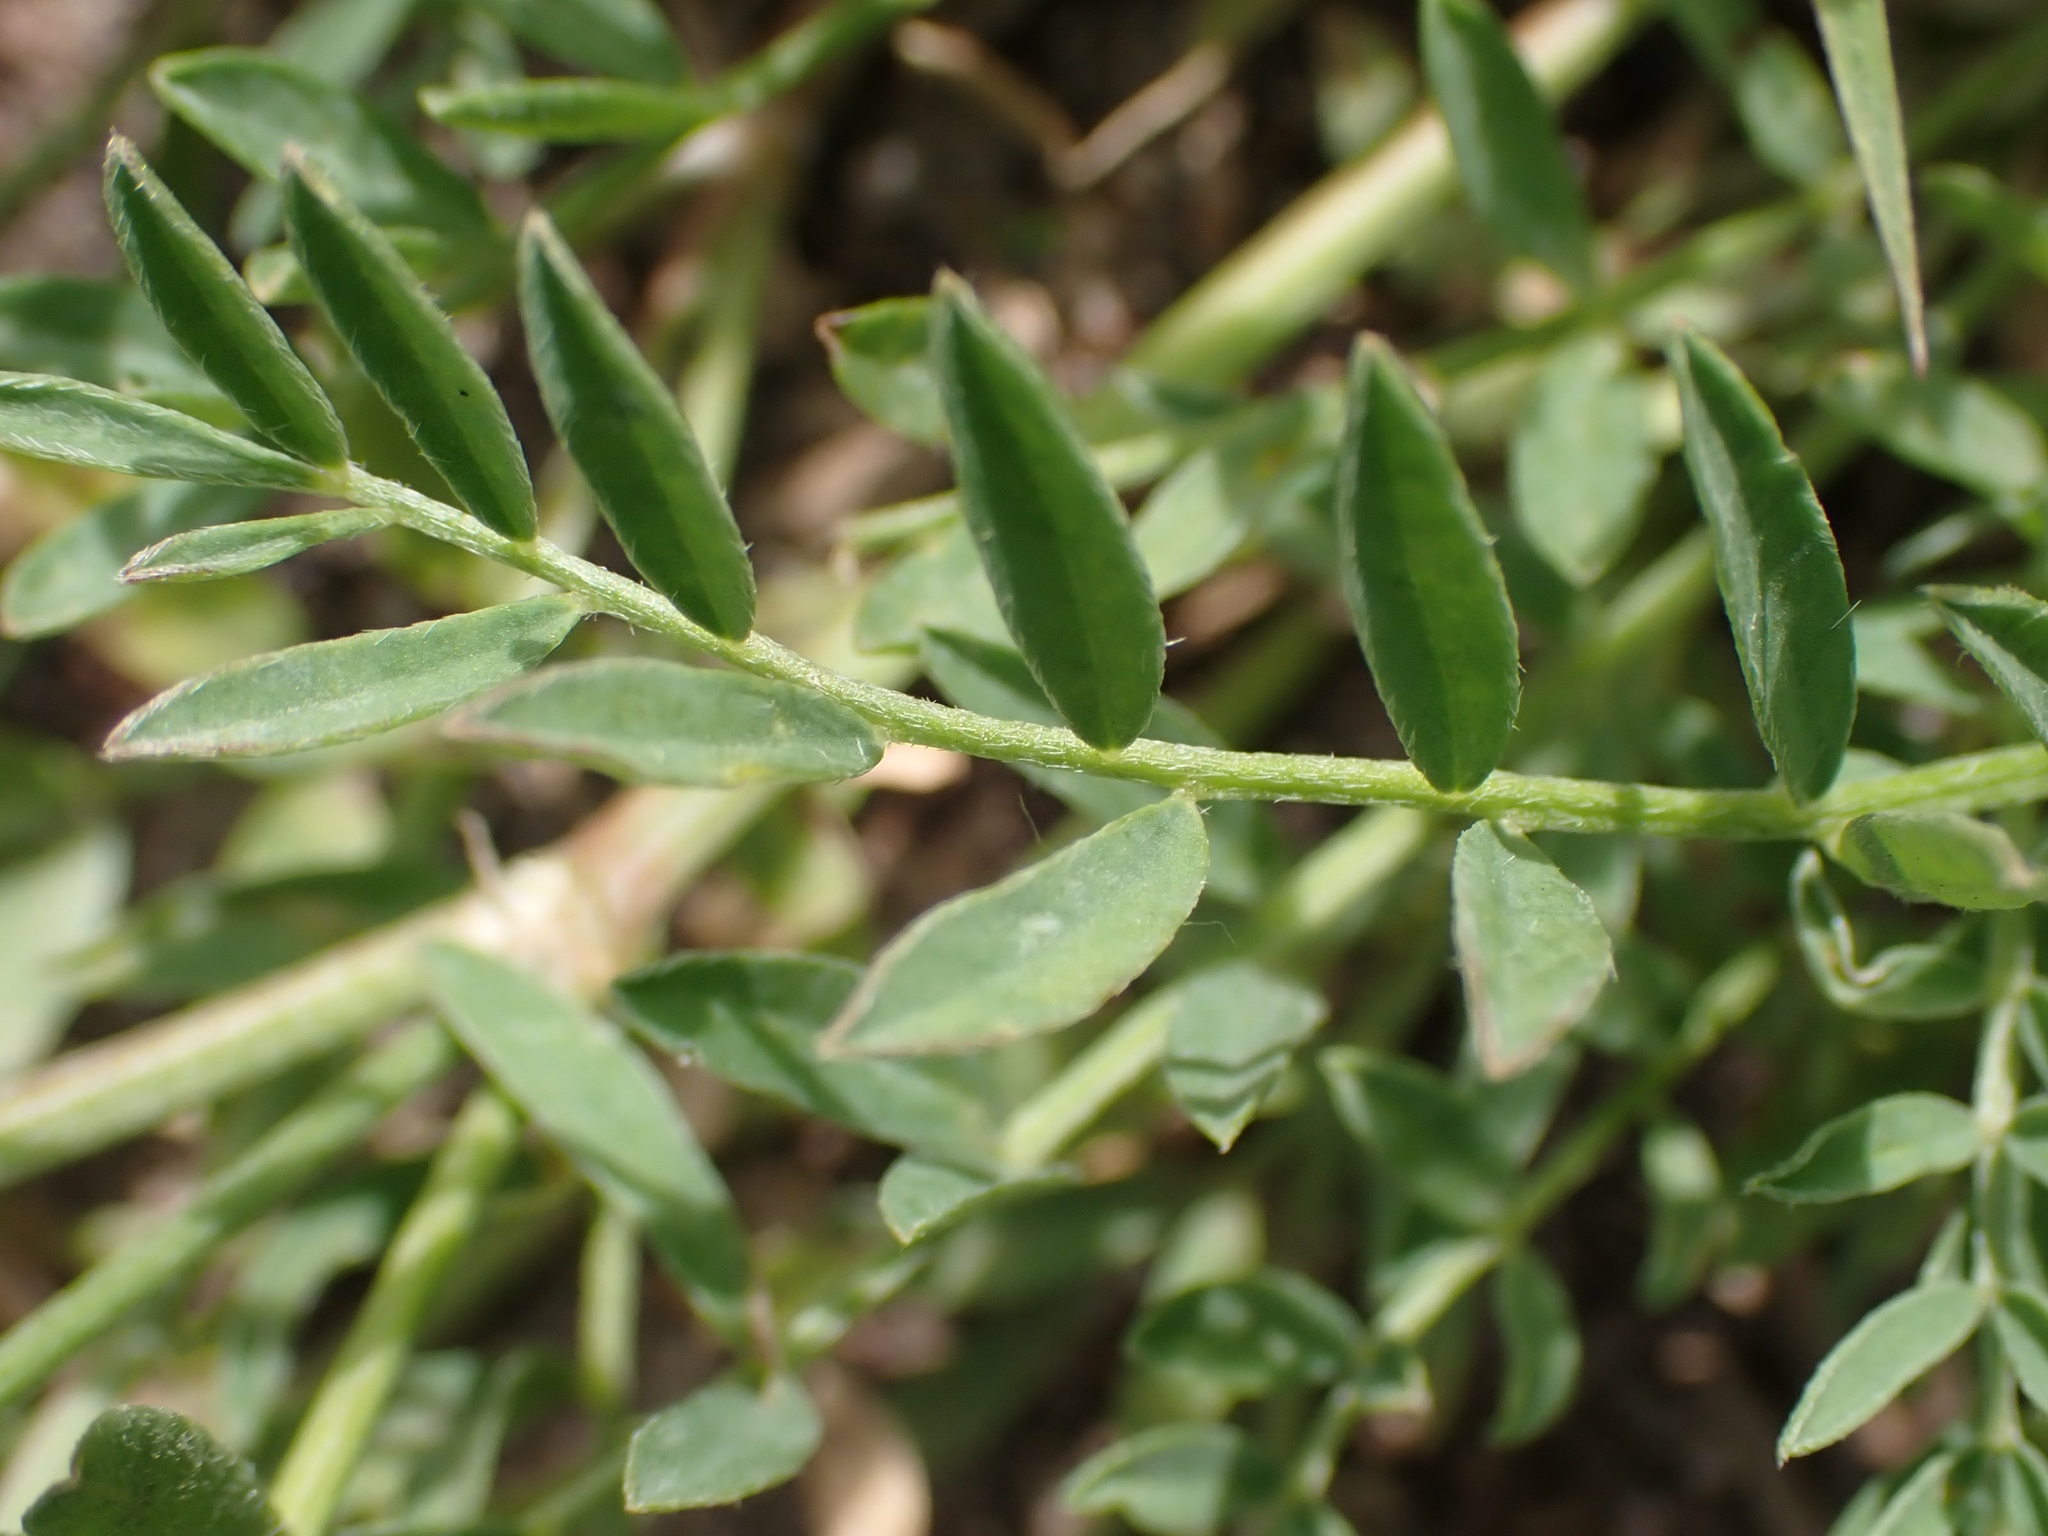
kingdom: Plantae
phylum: Tracheophyta
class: Magnoliopsida
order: Fabales
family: Fabaceae
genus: Astragalus
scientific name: Astragalus laxmannii
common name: Laxmann's milk-vetch
